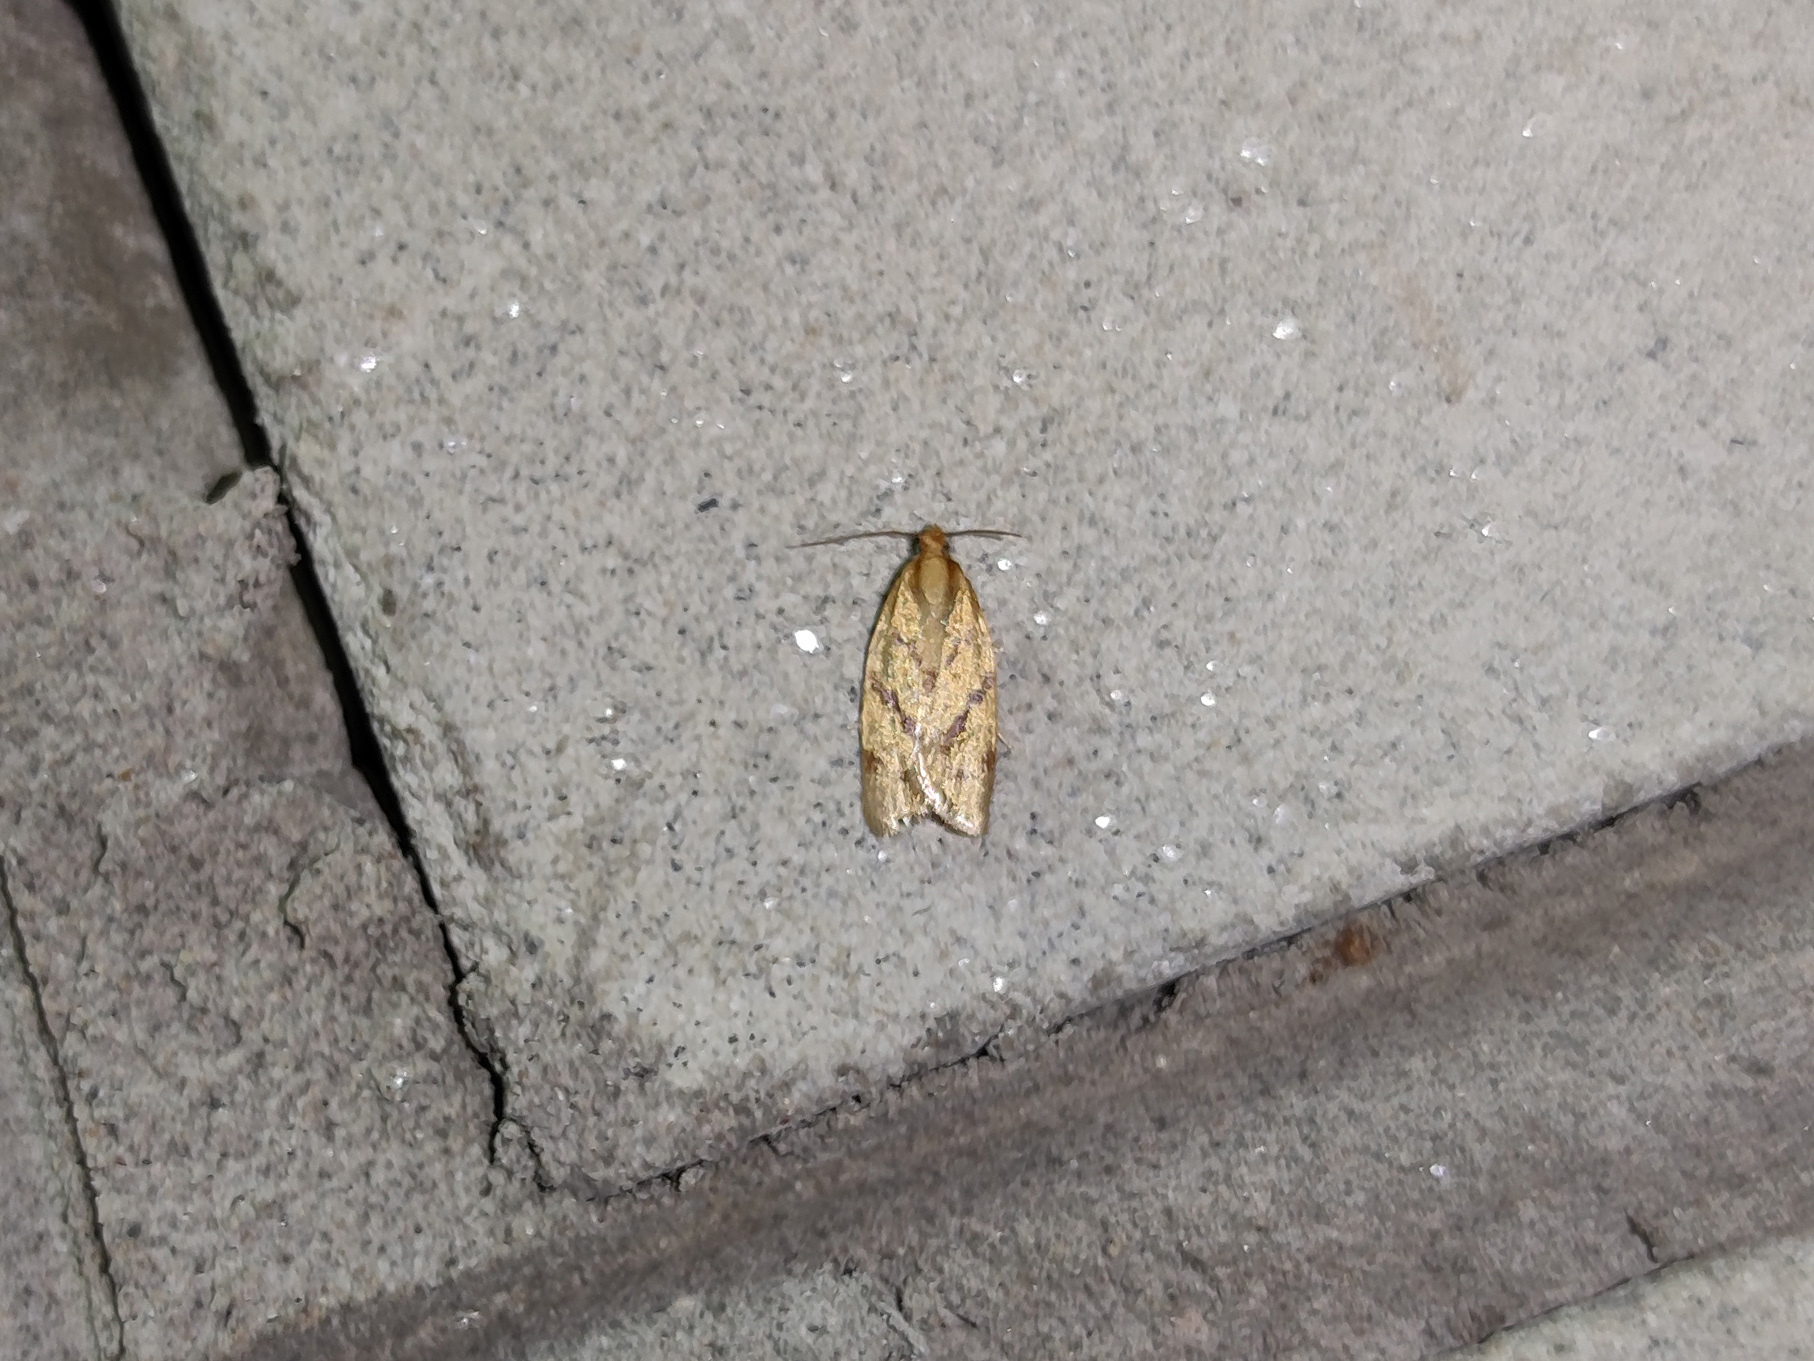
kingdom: Animalia
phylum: Arthropoda
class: Insecta
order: Lepidoptera
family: Tortricidae
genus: Clepsis
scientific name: Clepsis pallidana
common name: Sheep's-bit conch
